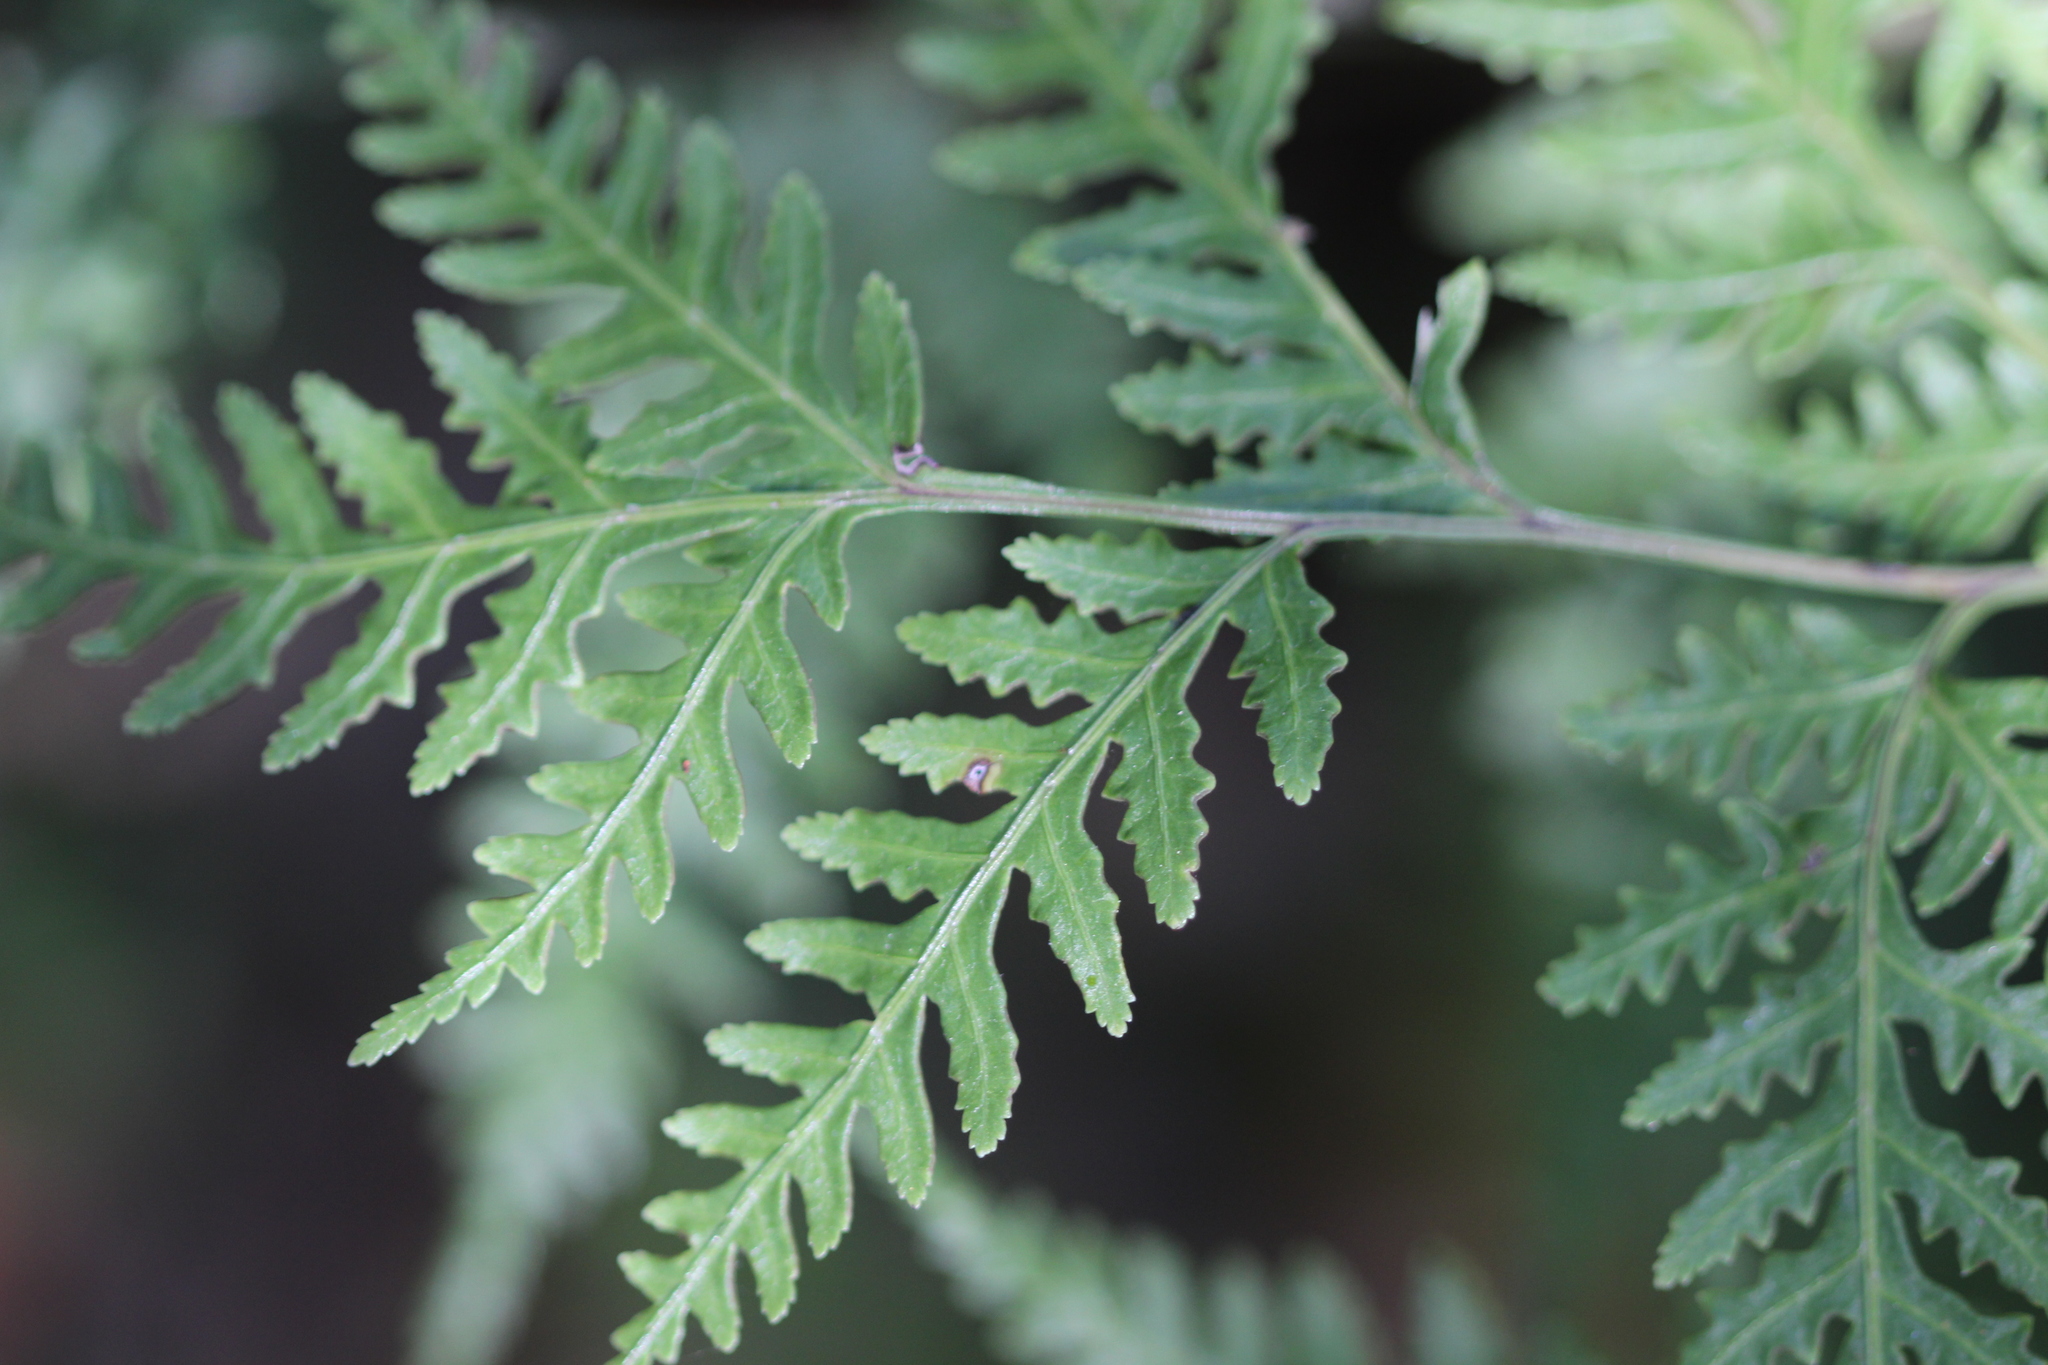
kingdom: Plantae
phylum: Tracheophyta
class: Polypodiopsida
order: Polypodiales
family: Pteridaceae
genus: Pteris
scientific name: Pteris macilenta
